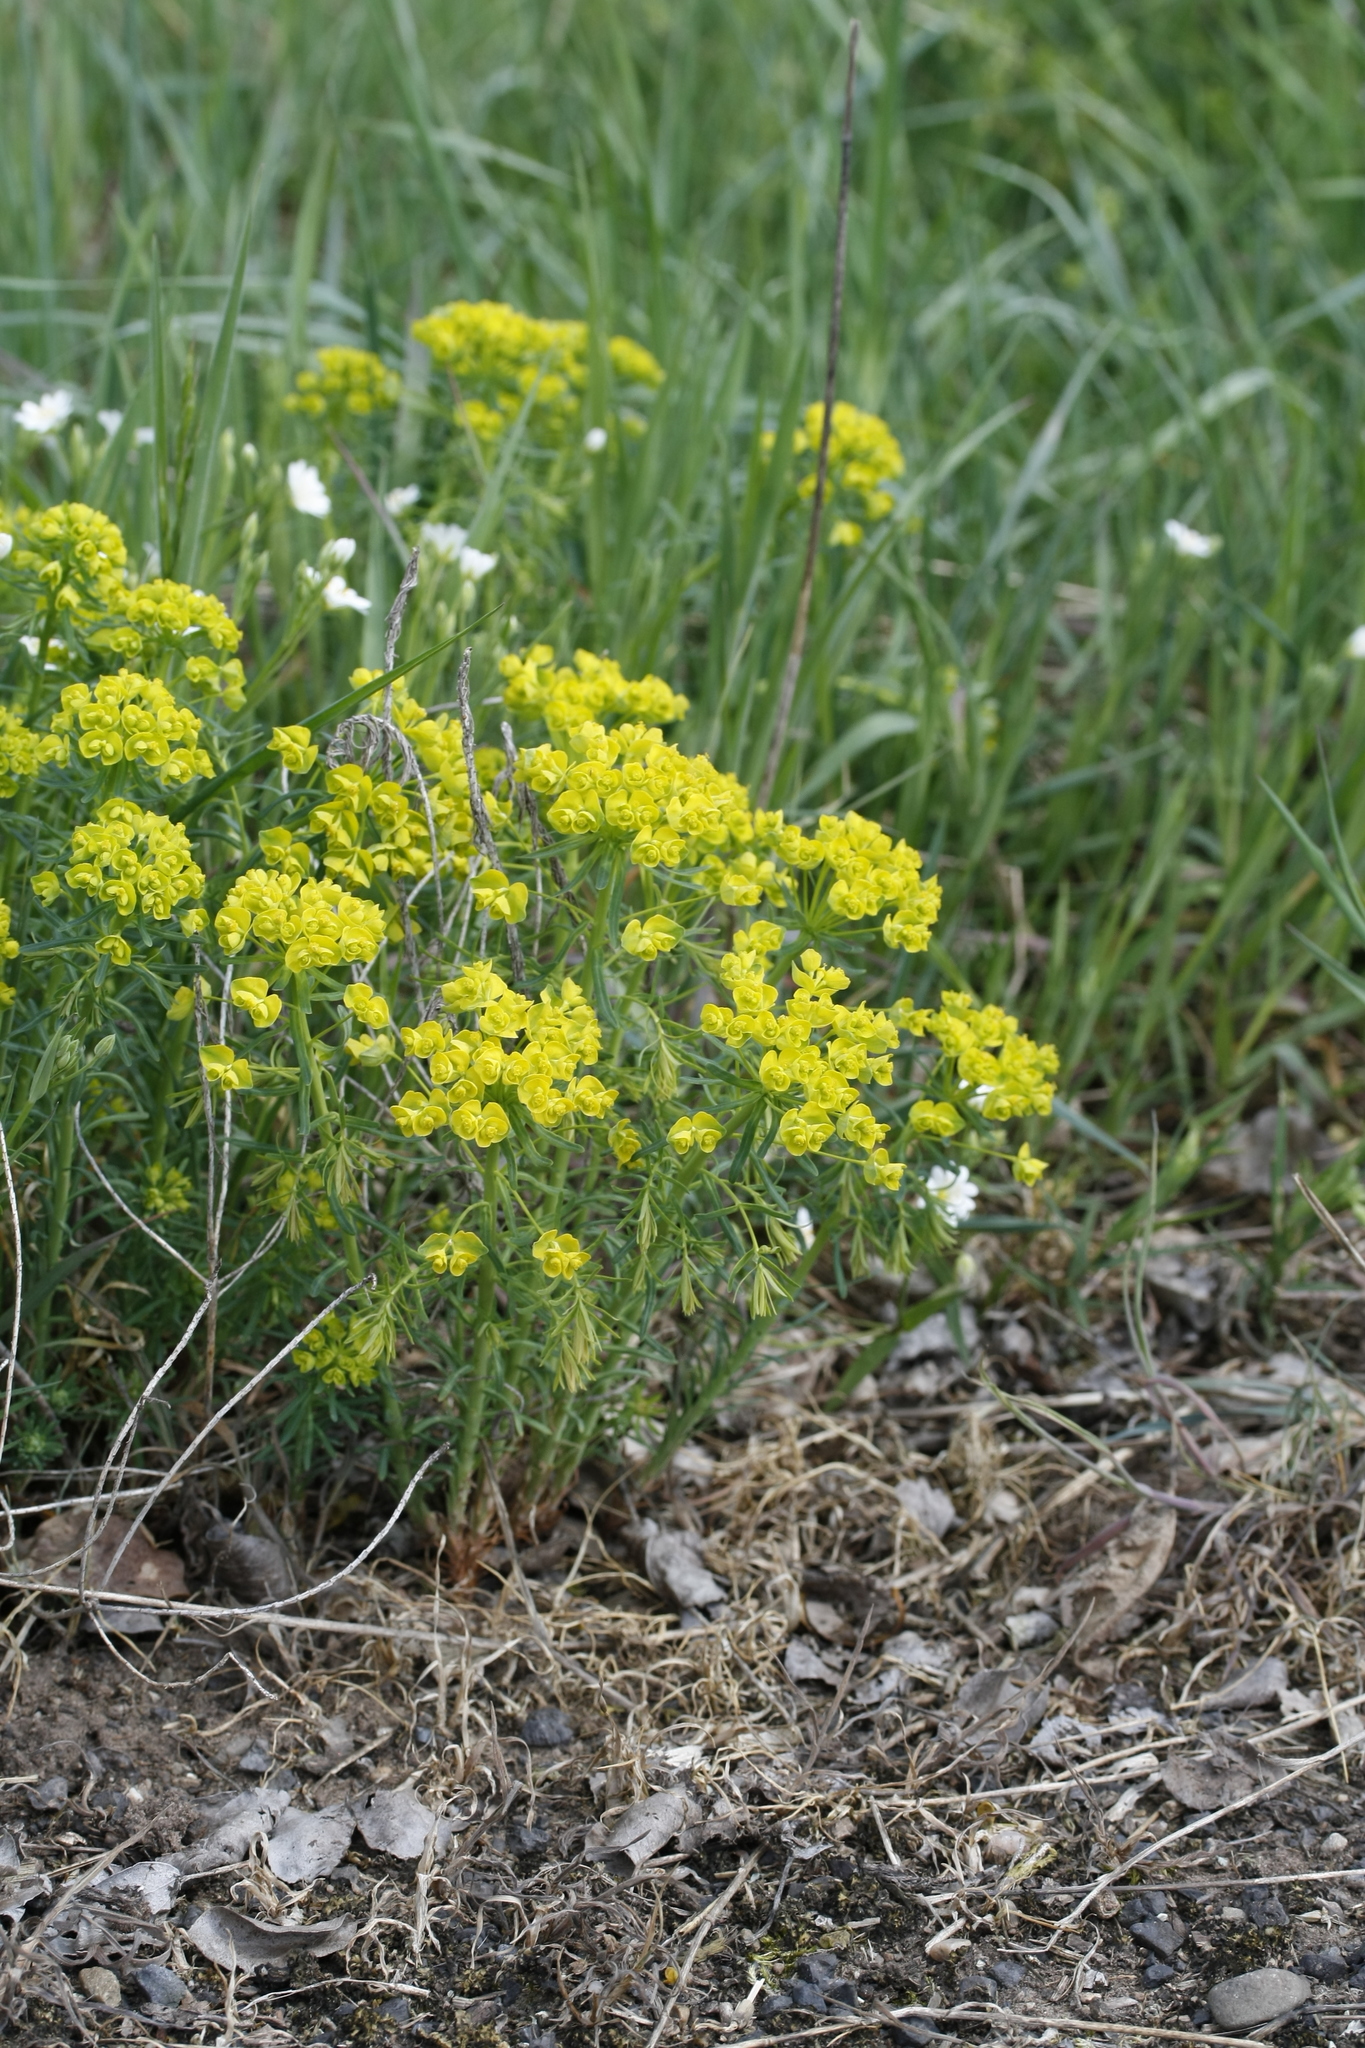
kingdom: Plantae
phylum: Tracheophyta
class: Magnoliopsida
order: Malpighiales
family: Euphorbiaceae
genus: Euphorbia
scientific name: Euphorbia cyparissias
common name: Cypress spurge
